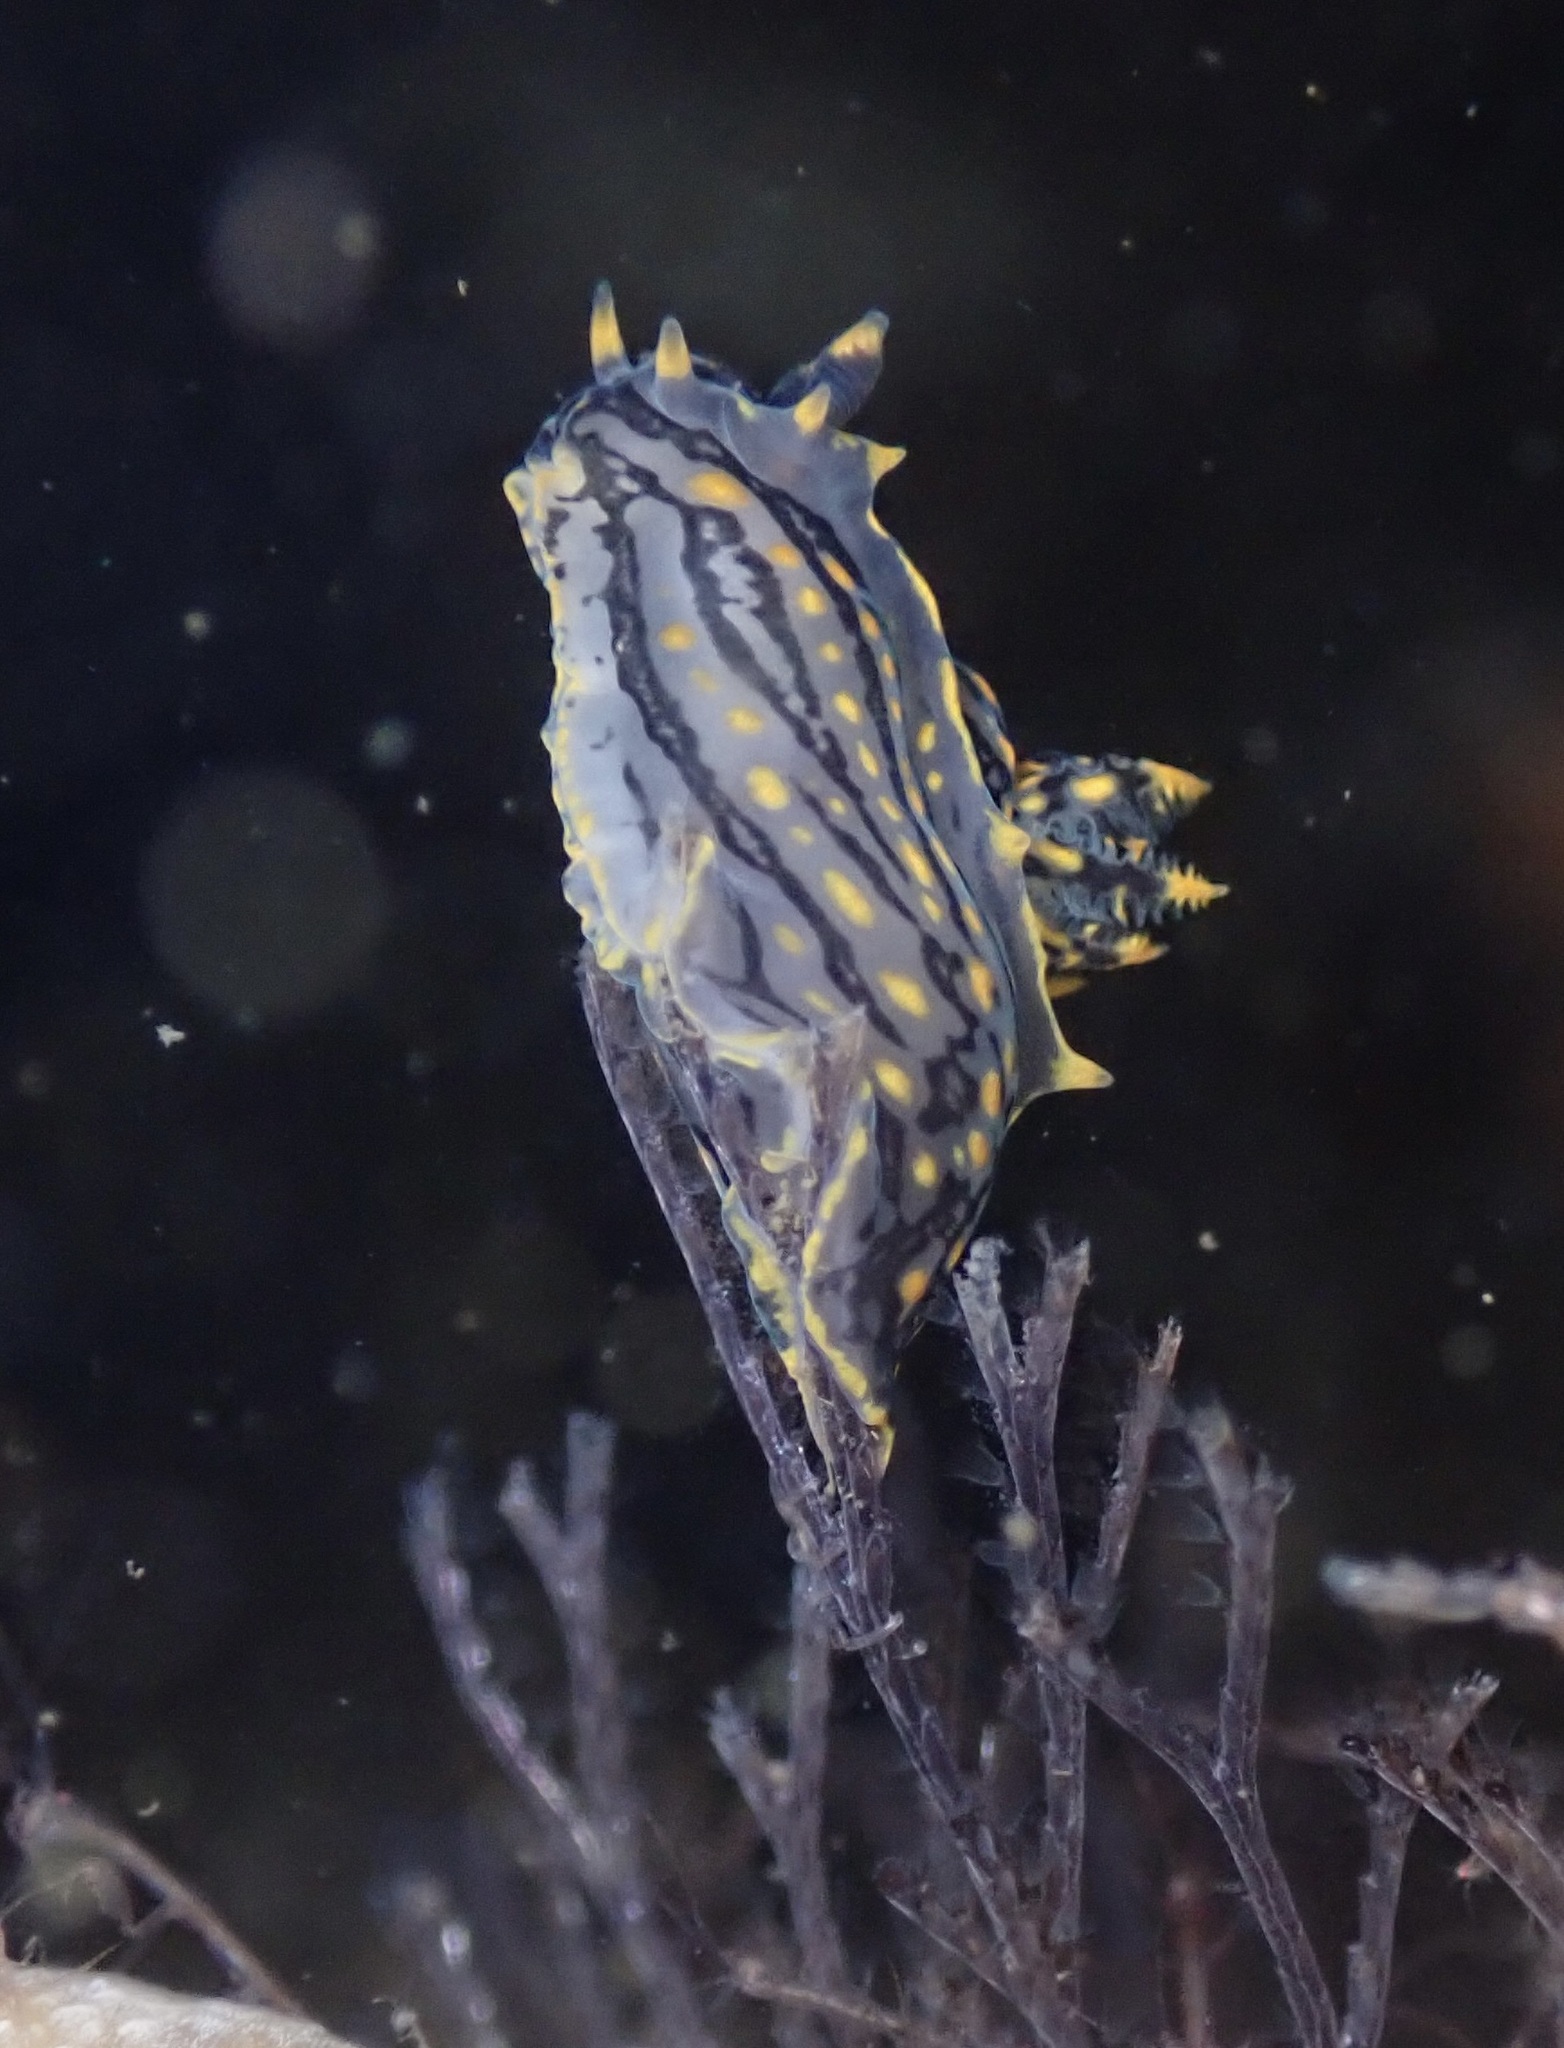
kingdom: Animalia
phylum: Mollusca
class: Gastropoda
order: Nudibranchia
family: Polyceridae
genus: Polycera
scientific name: Polycera atra
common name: Orange-spike polycera
